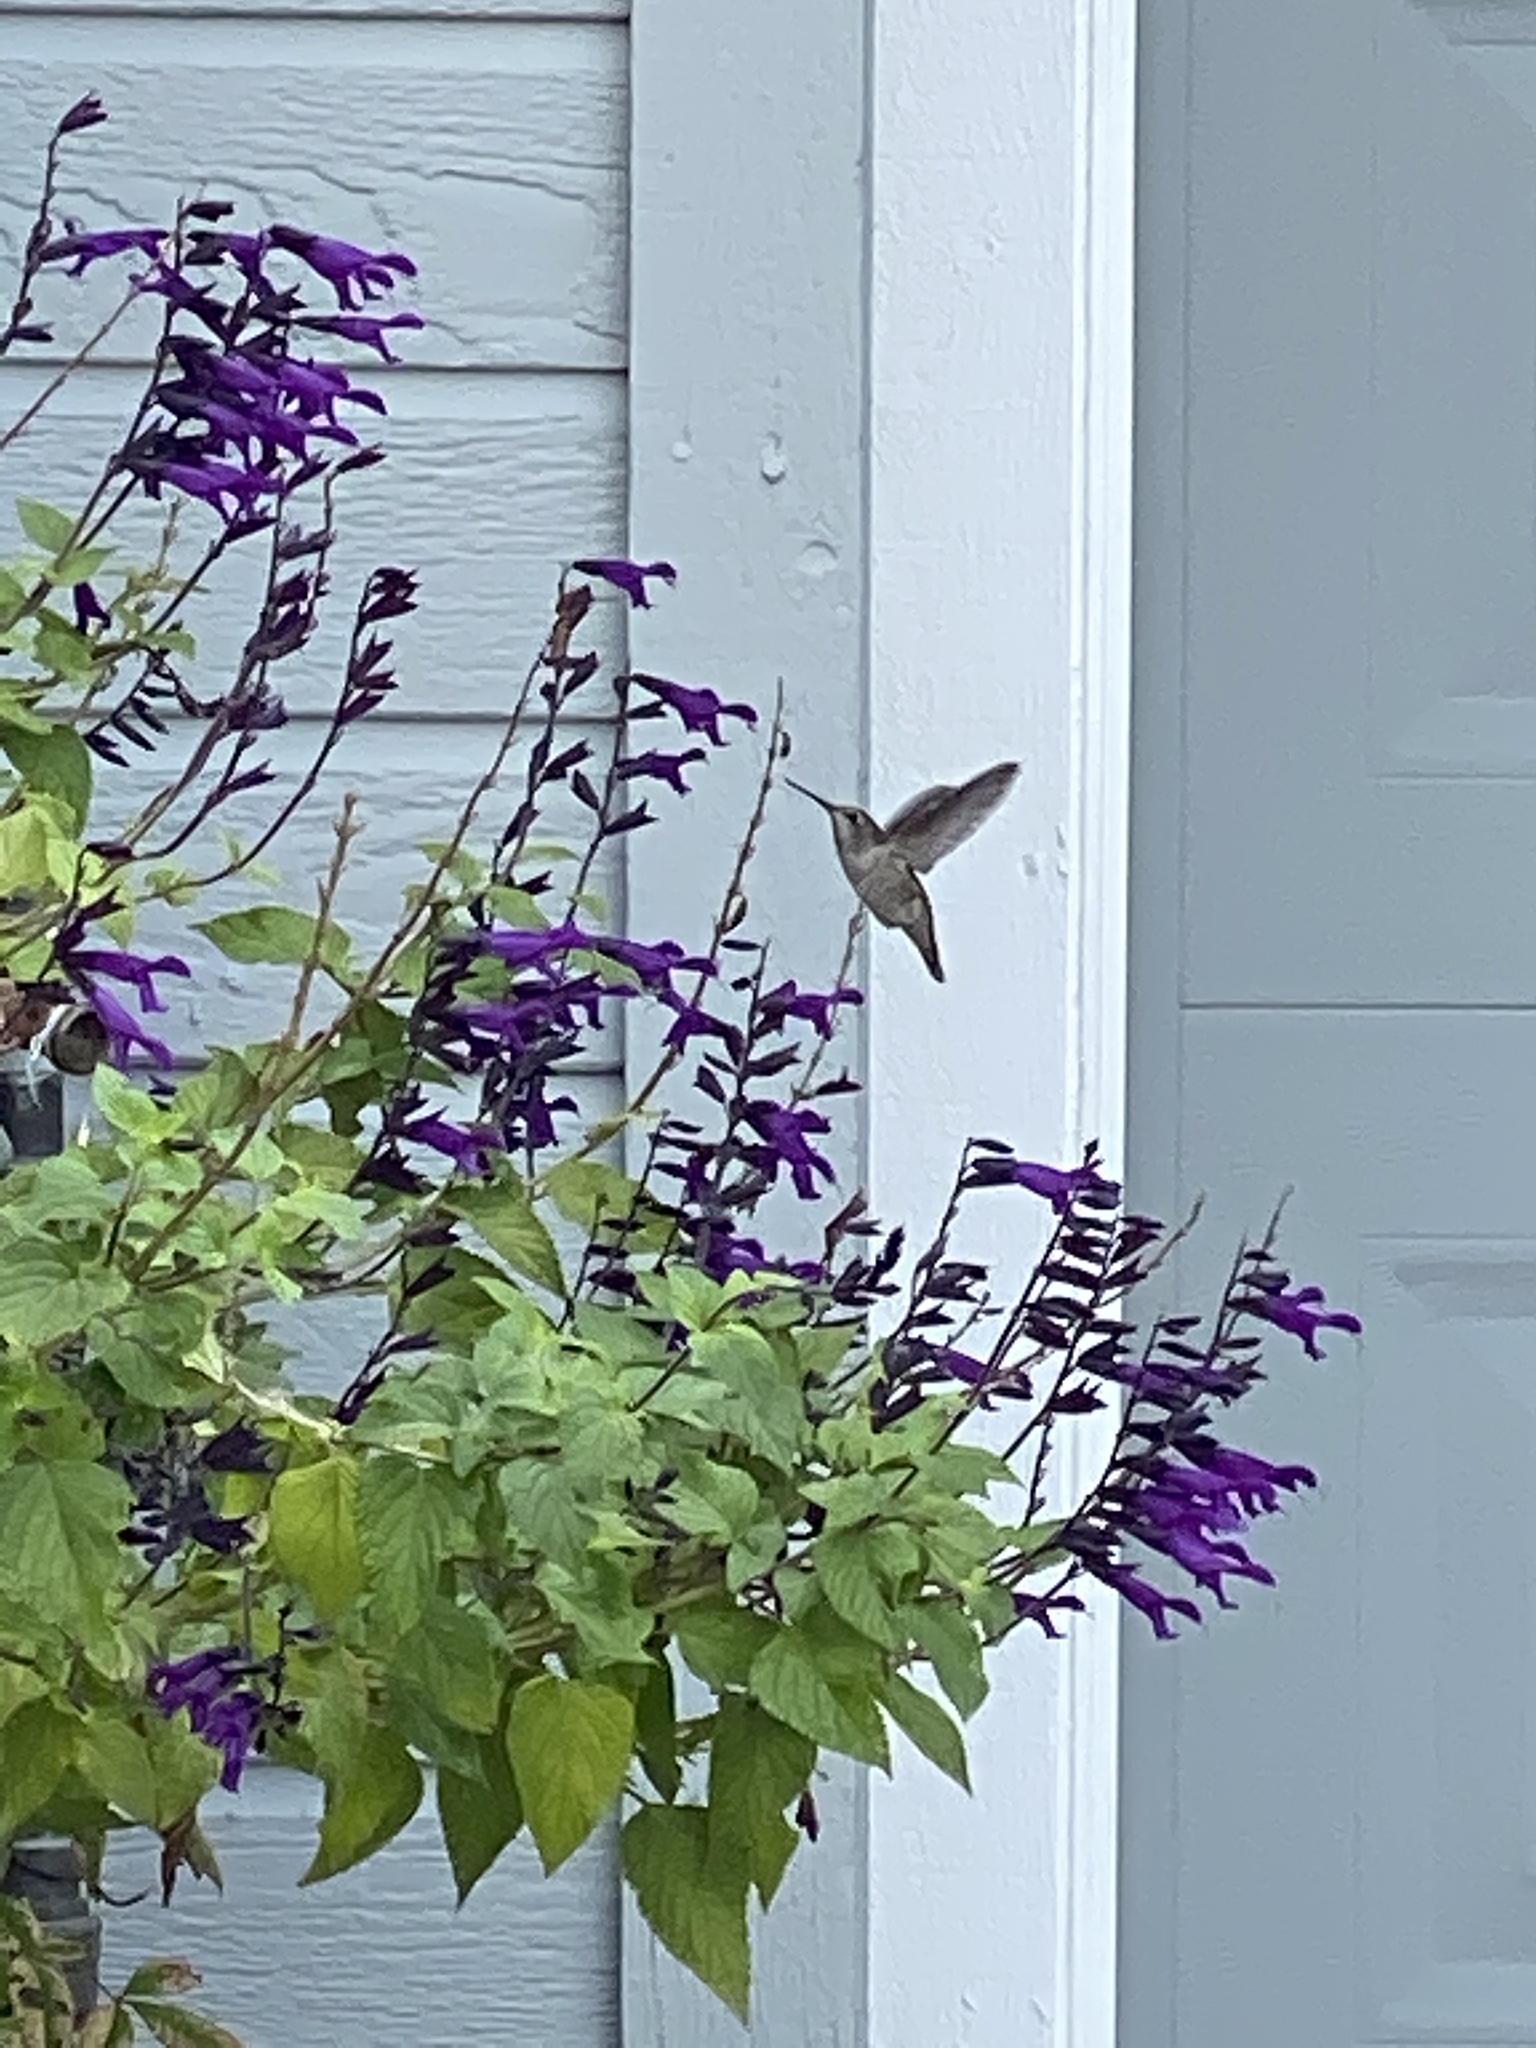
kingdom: Animalia
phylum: Chordata
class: Aves
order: Apodiformes
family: Trochilidae
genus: Calypte
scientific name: Calypte anna
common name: Anna's hummingbird
